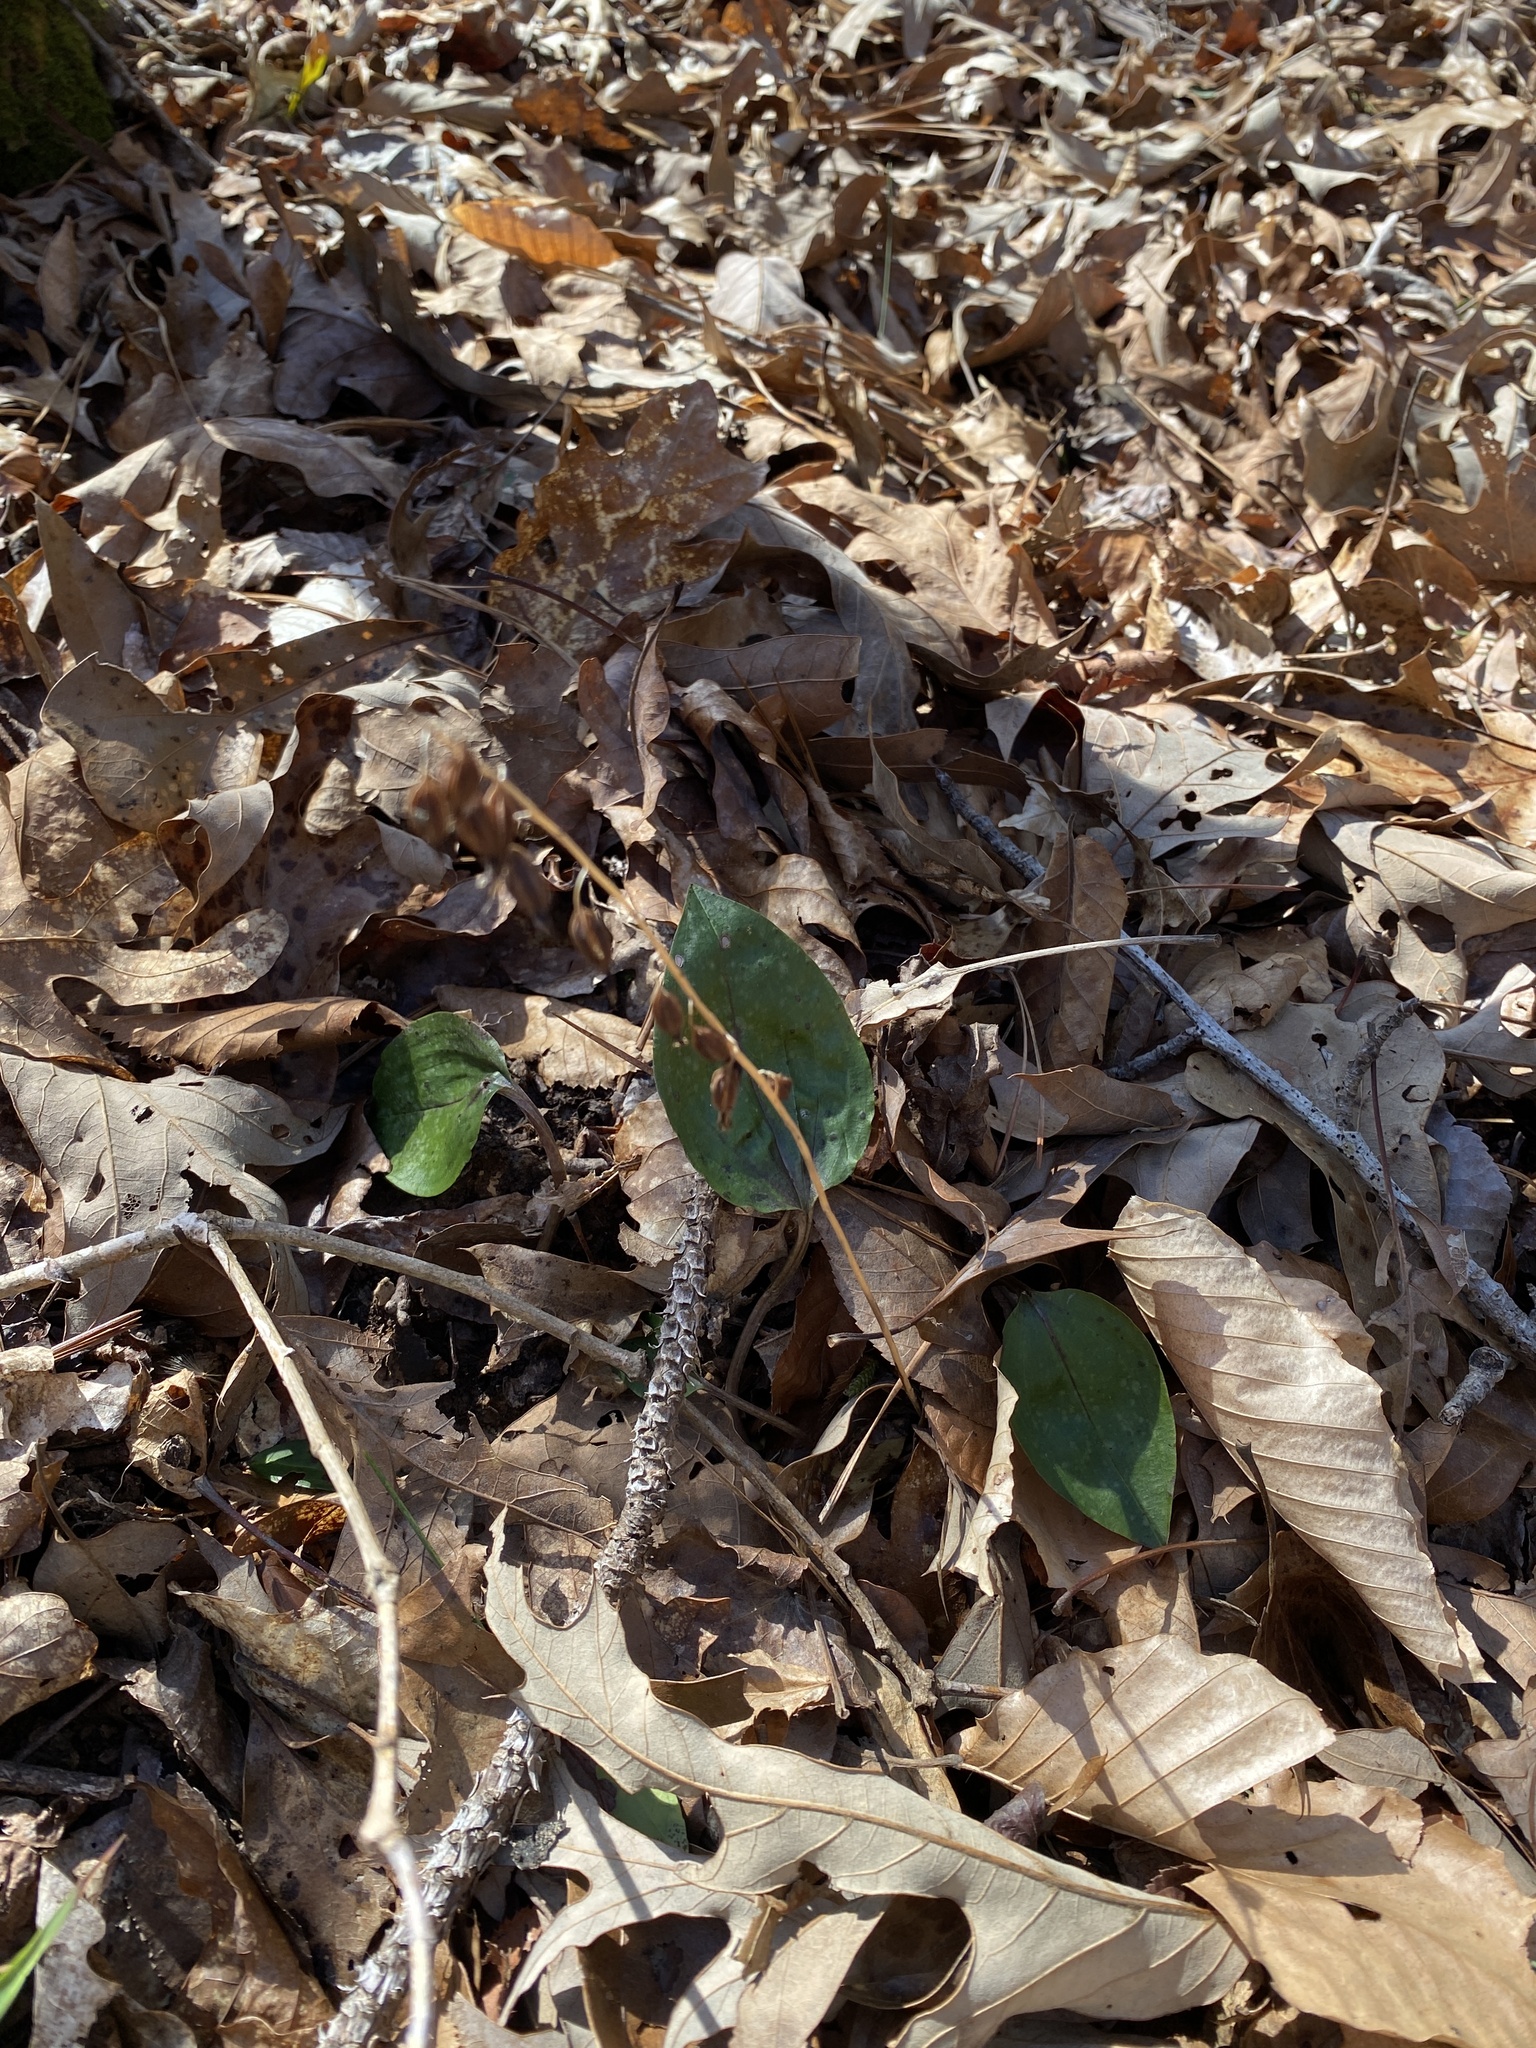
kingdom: Plantae
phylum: Tracheophyta
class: Liliopsida
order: Asparagales
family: Orchidaceae
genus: Tipularia
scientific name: Tipularia discolor
